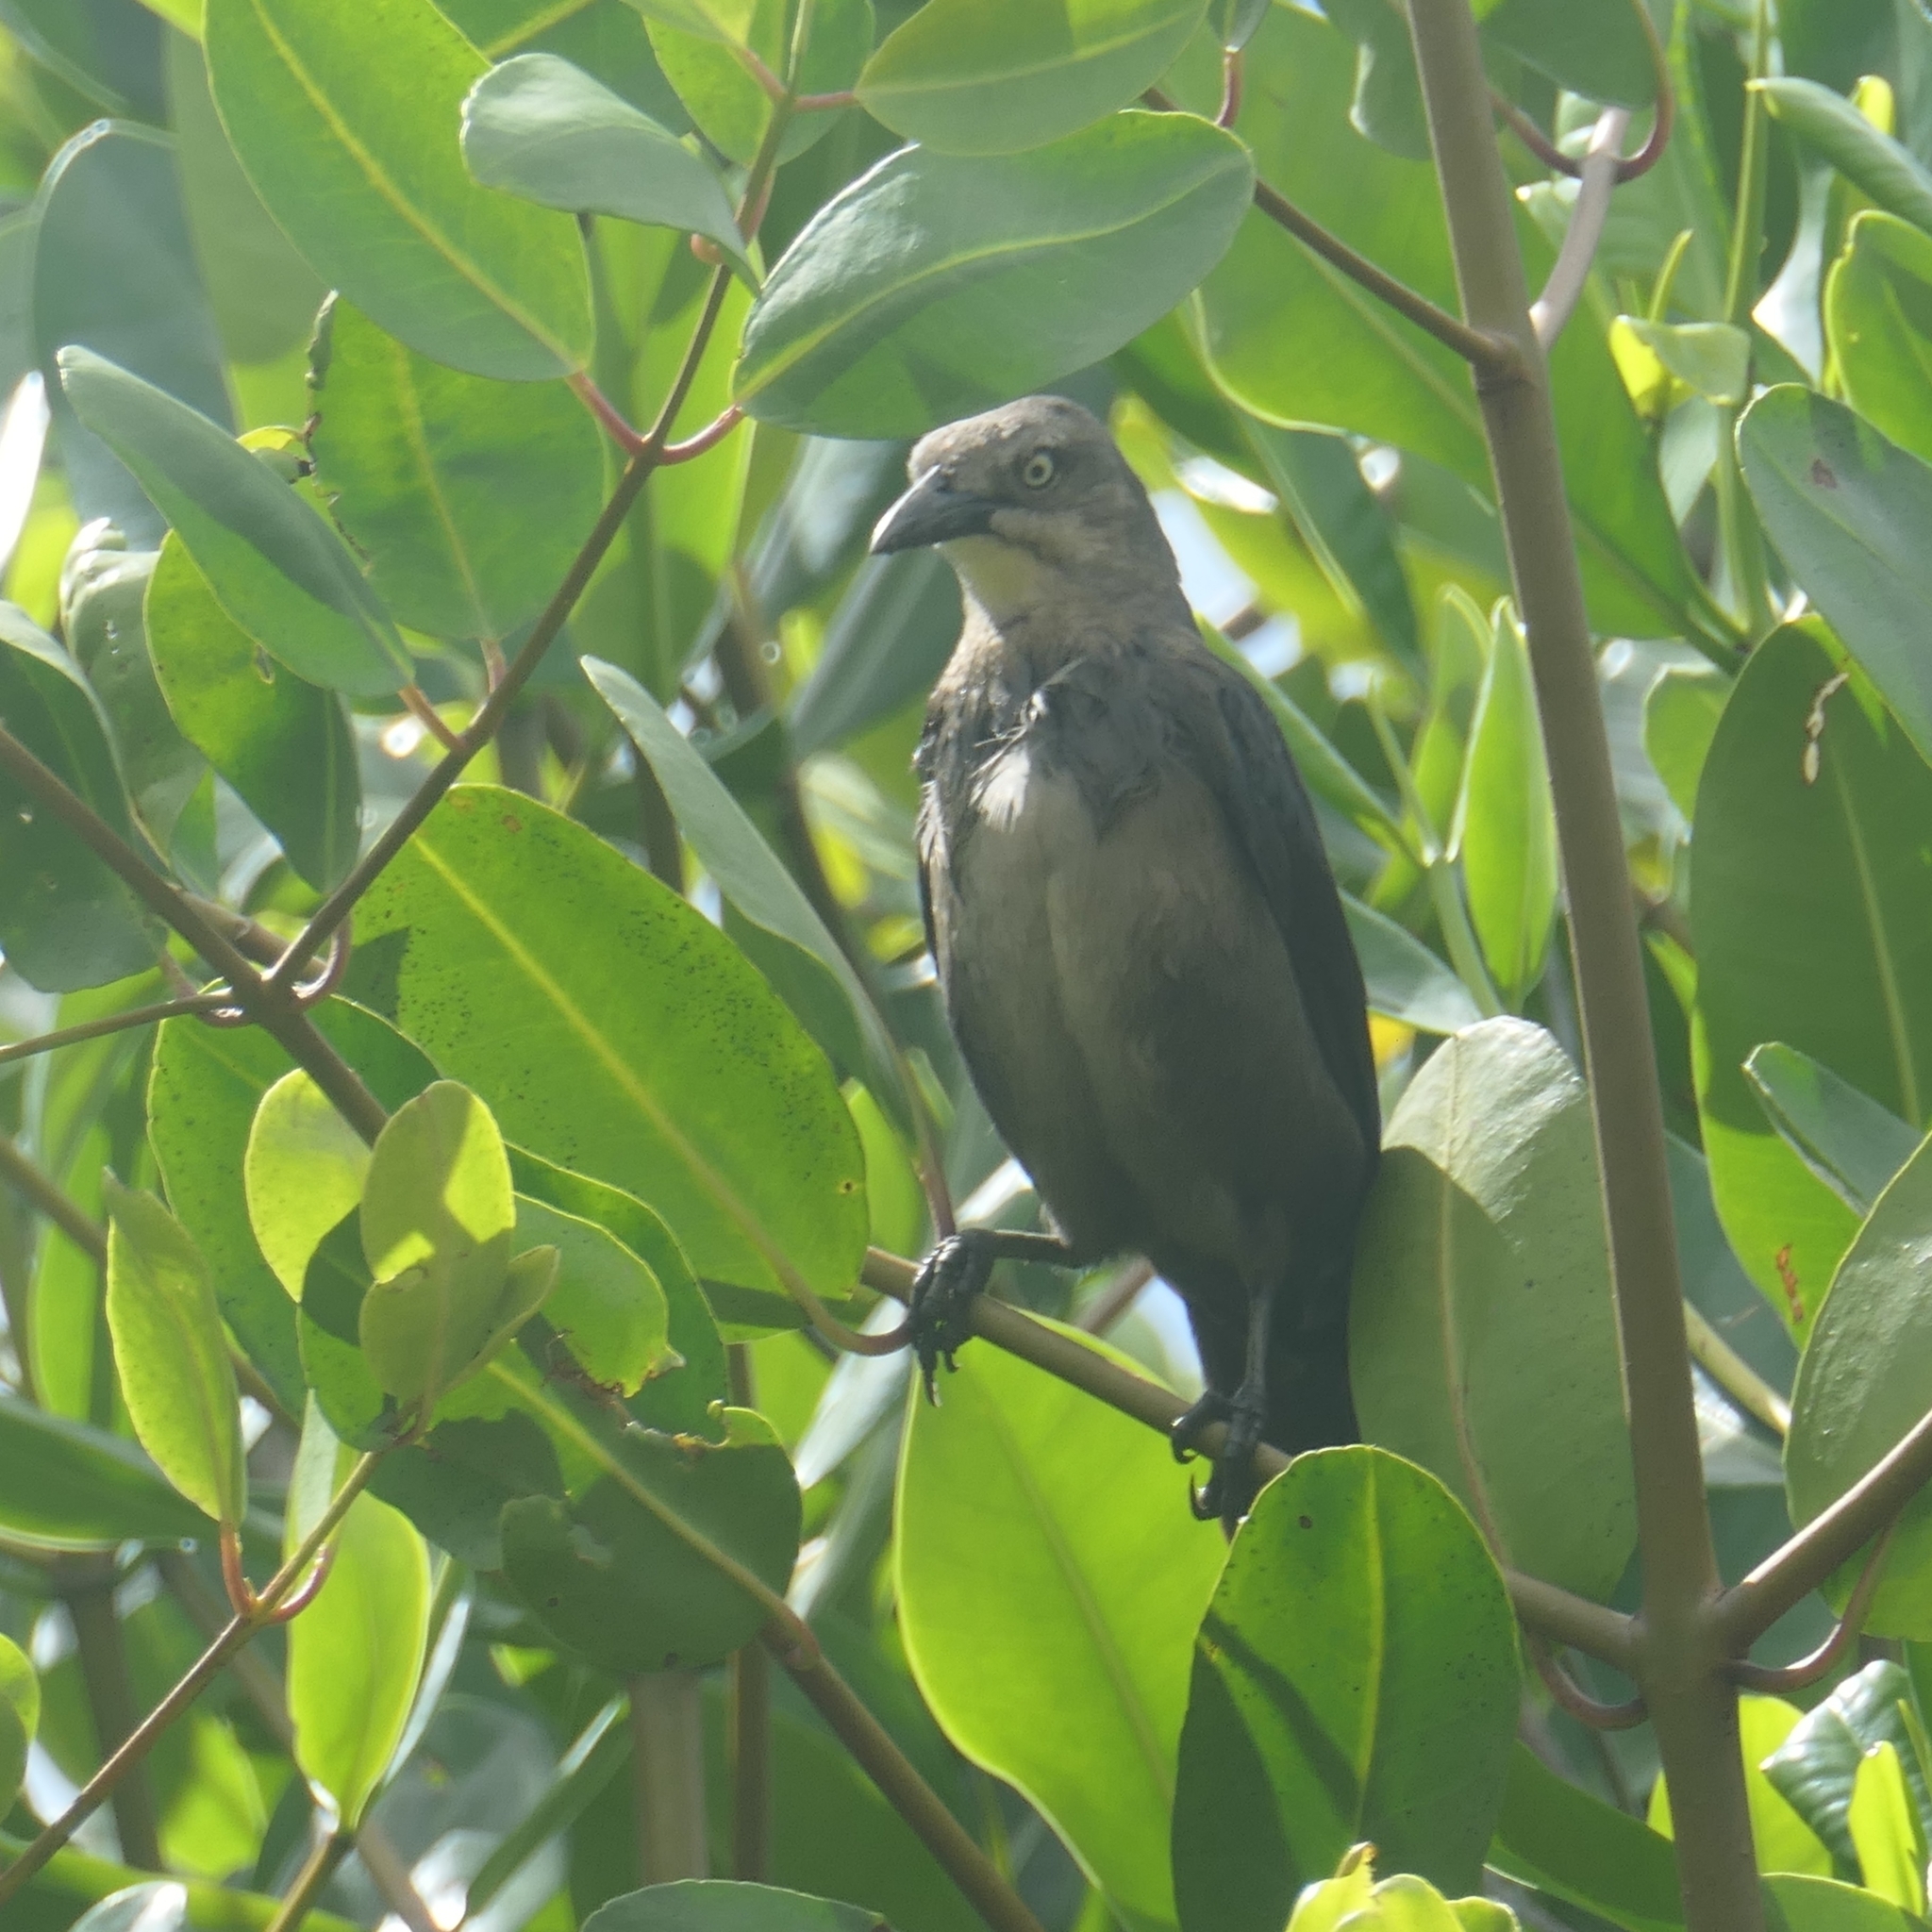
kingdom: Animalia
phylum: Chordata
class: Aves
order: Passeriformes
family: Icteridae
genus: Quiscalus
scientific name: Quiscalus lugubris
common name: Carib grackle
